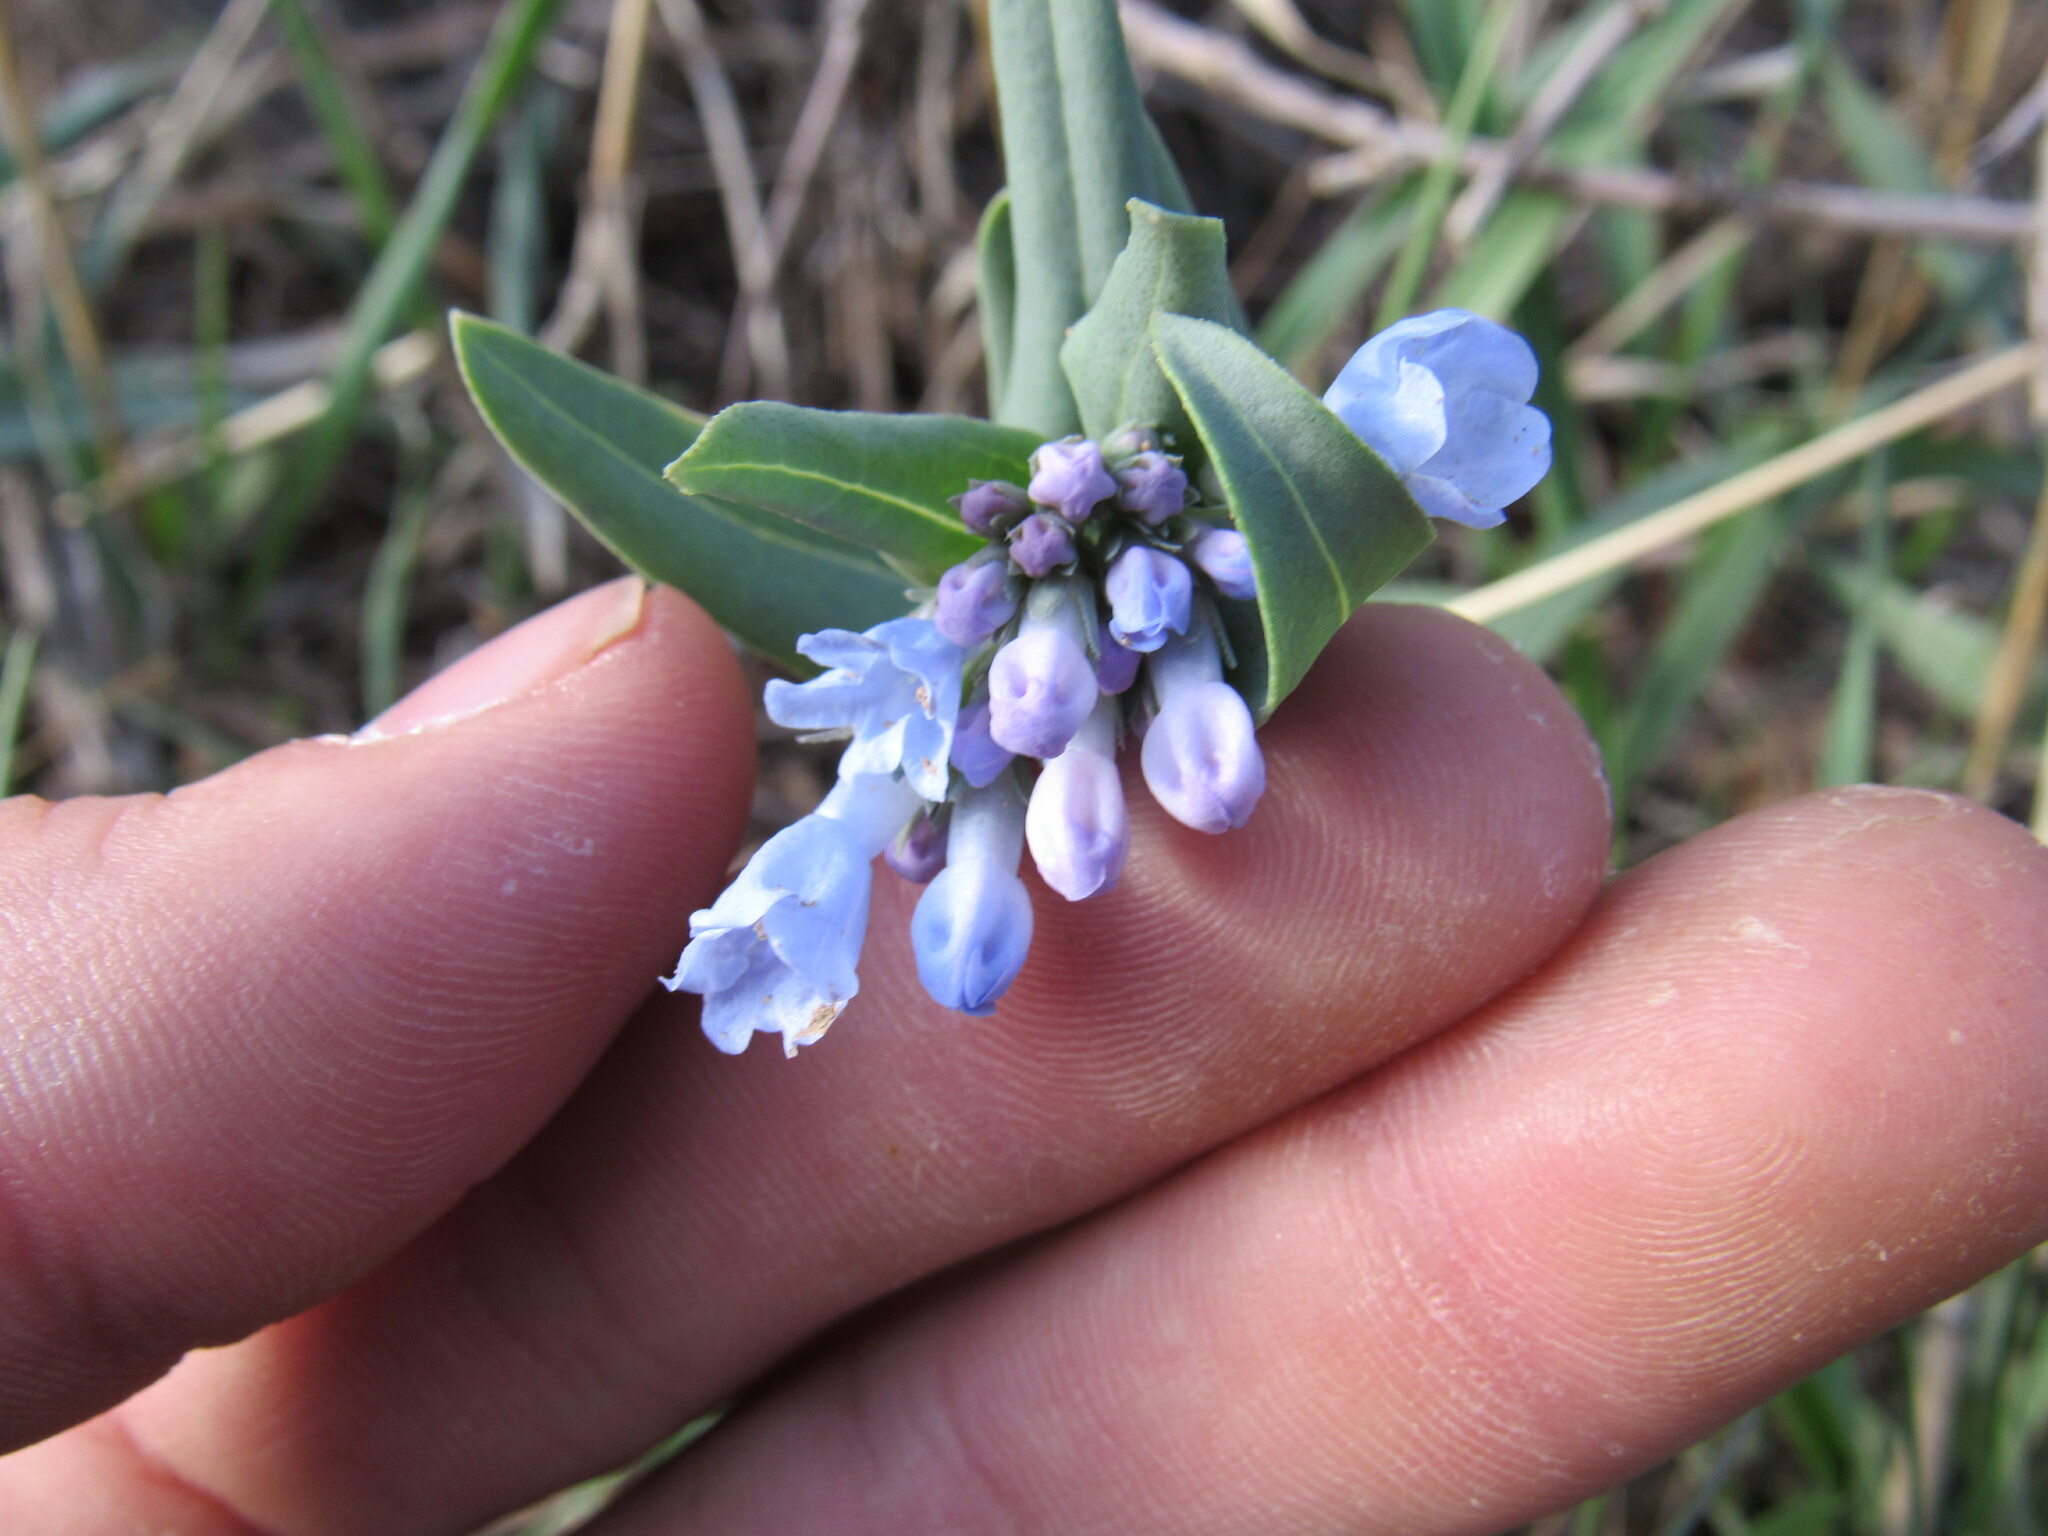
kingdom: Plantae
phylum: Tracheophyta
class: Magnoliopsida
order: Boraginales
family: Boraginaceae
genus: Mertensia
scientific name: Mertensia lanceolata
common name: Lance-leaved bluebells
